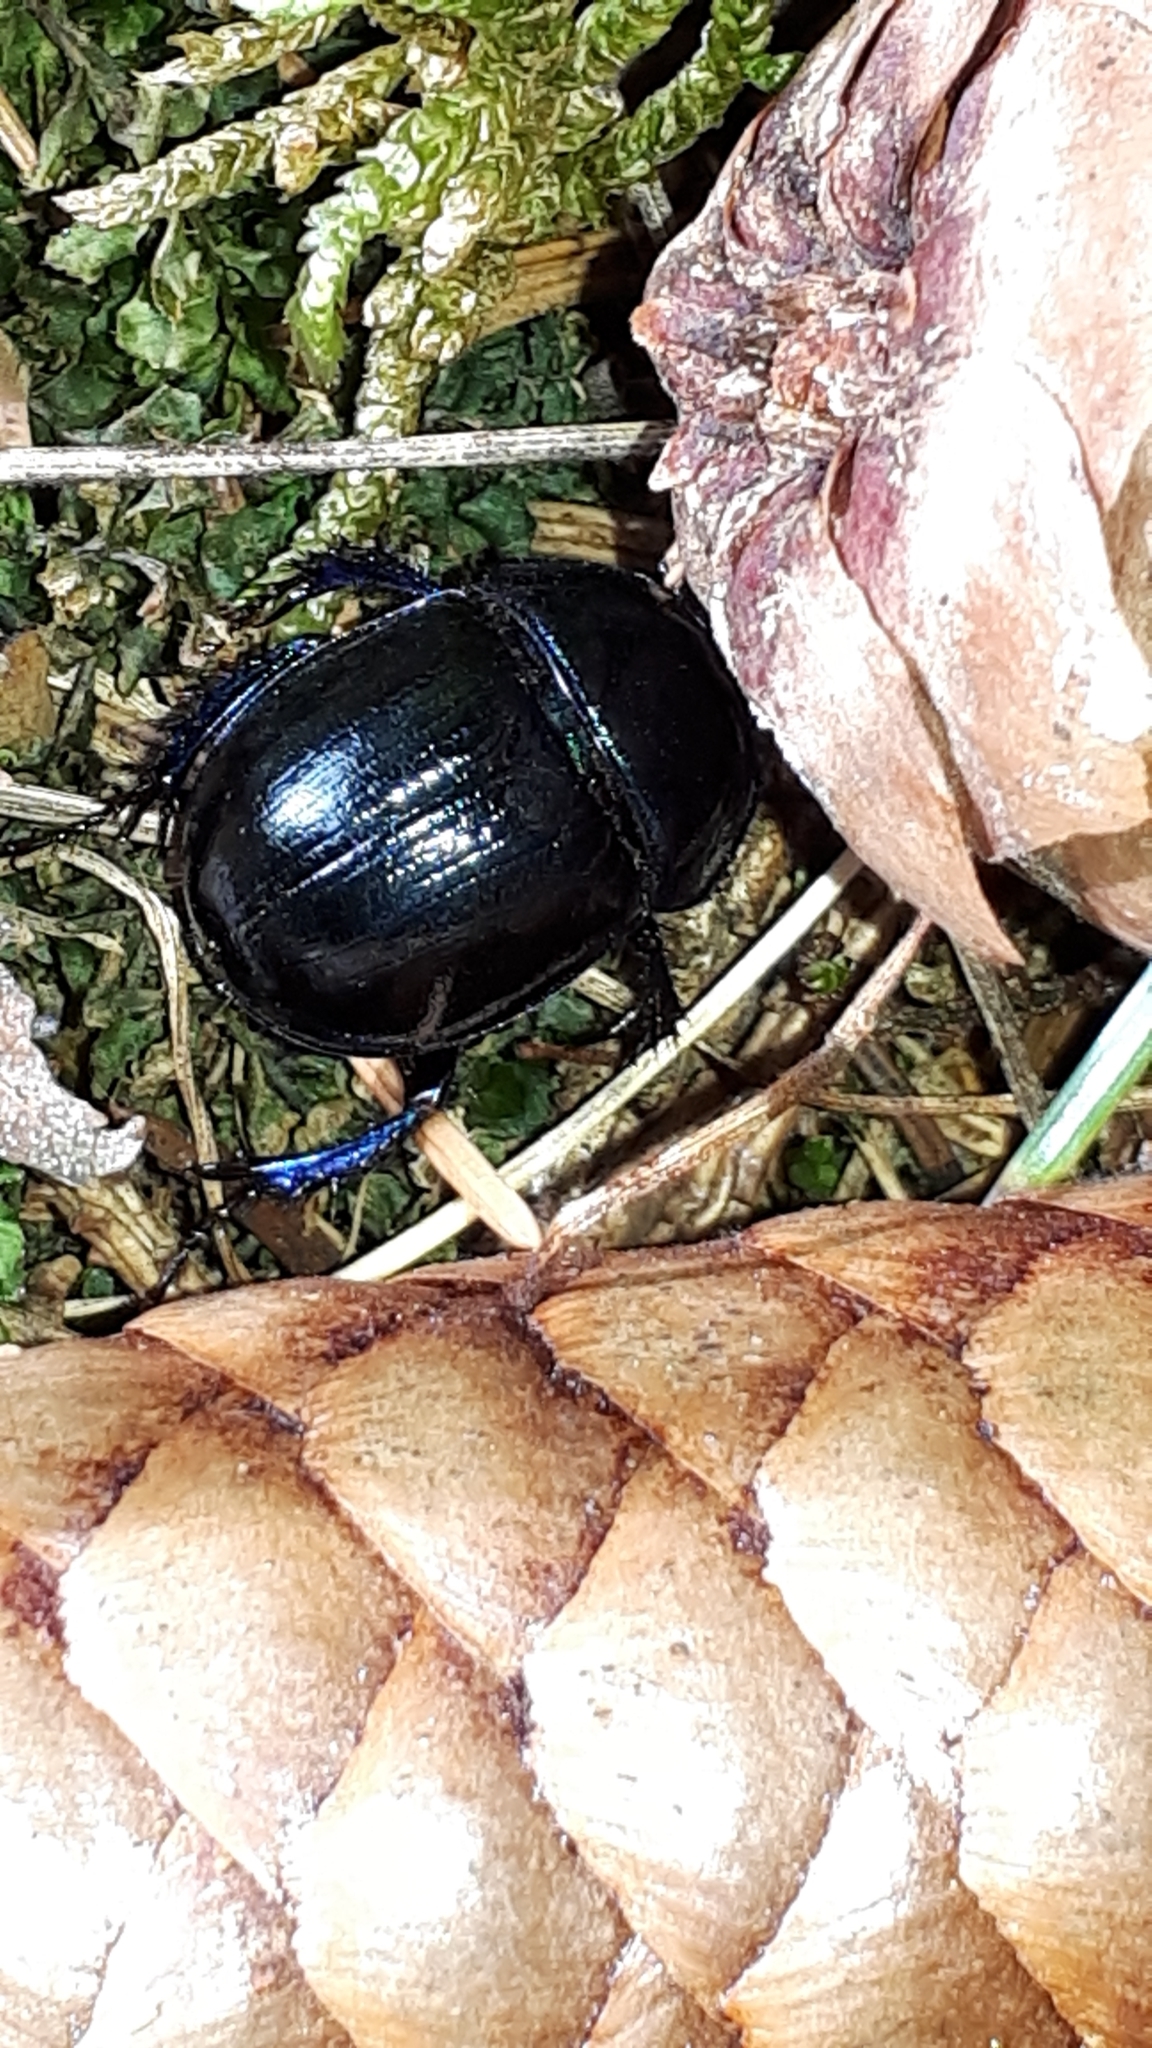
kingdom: Animalia
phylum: Arthropoda
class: Insecta
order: Coleoptera
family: Geotrupidae
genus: Anoplotrupes
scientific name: Anoplotrupes stercorosus
